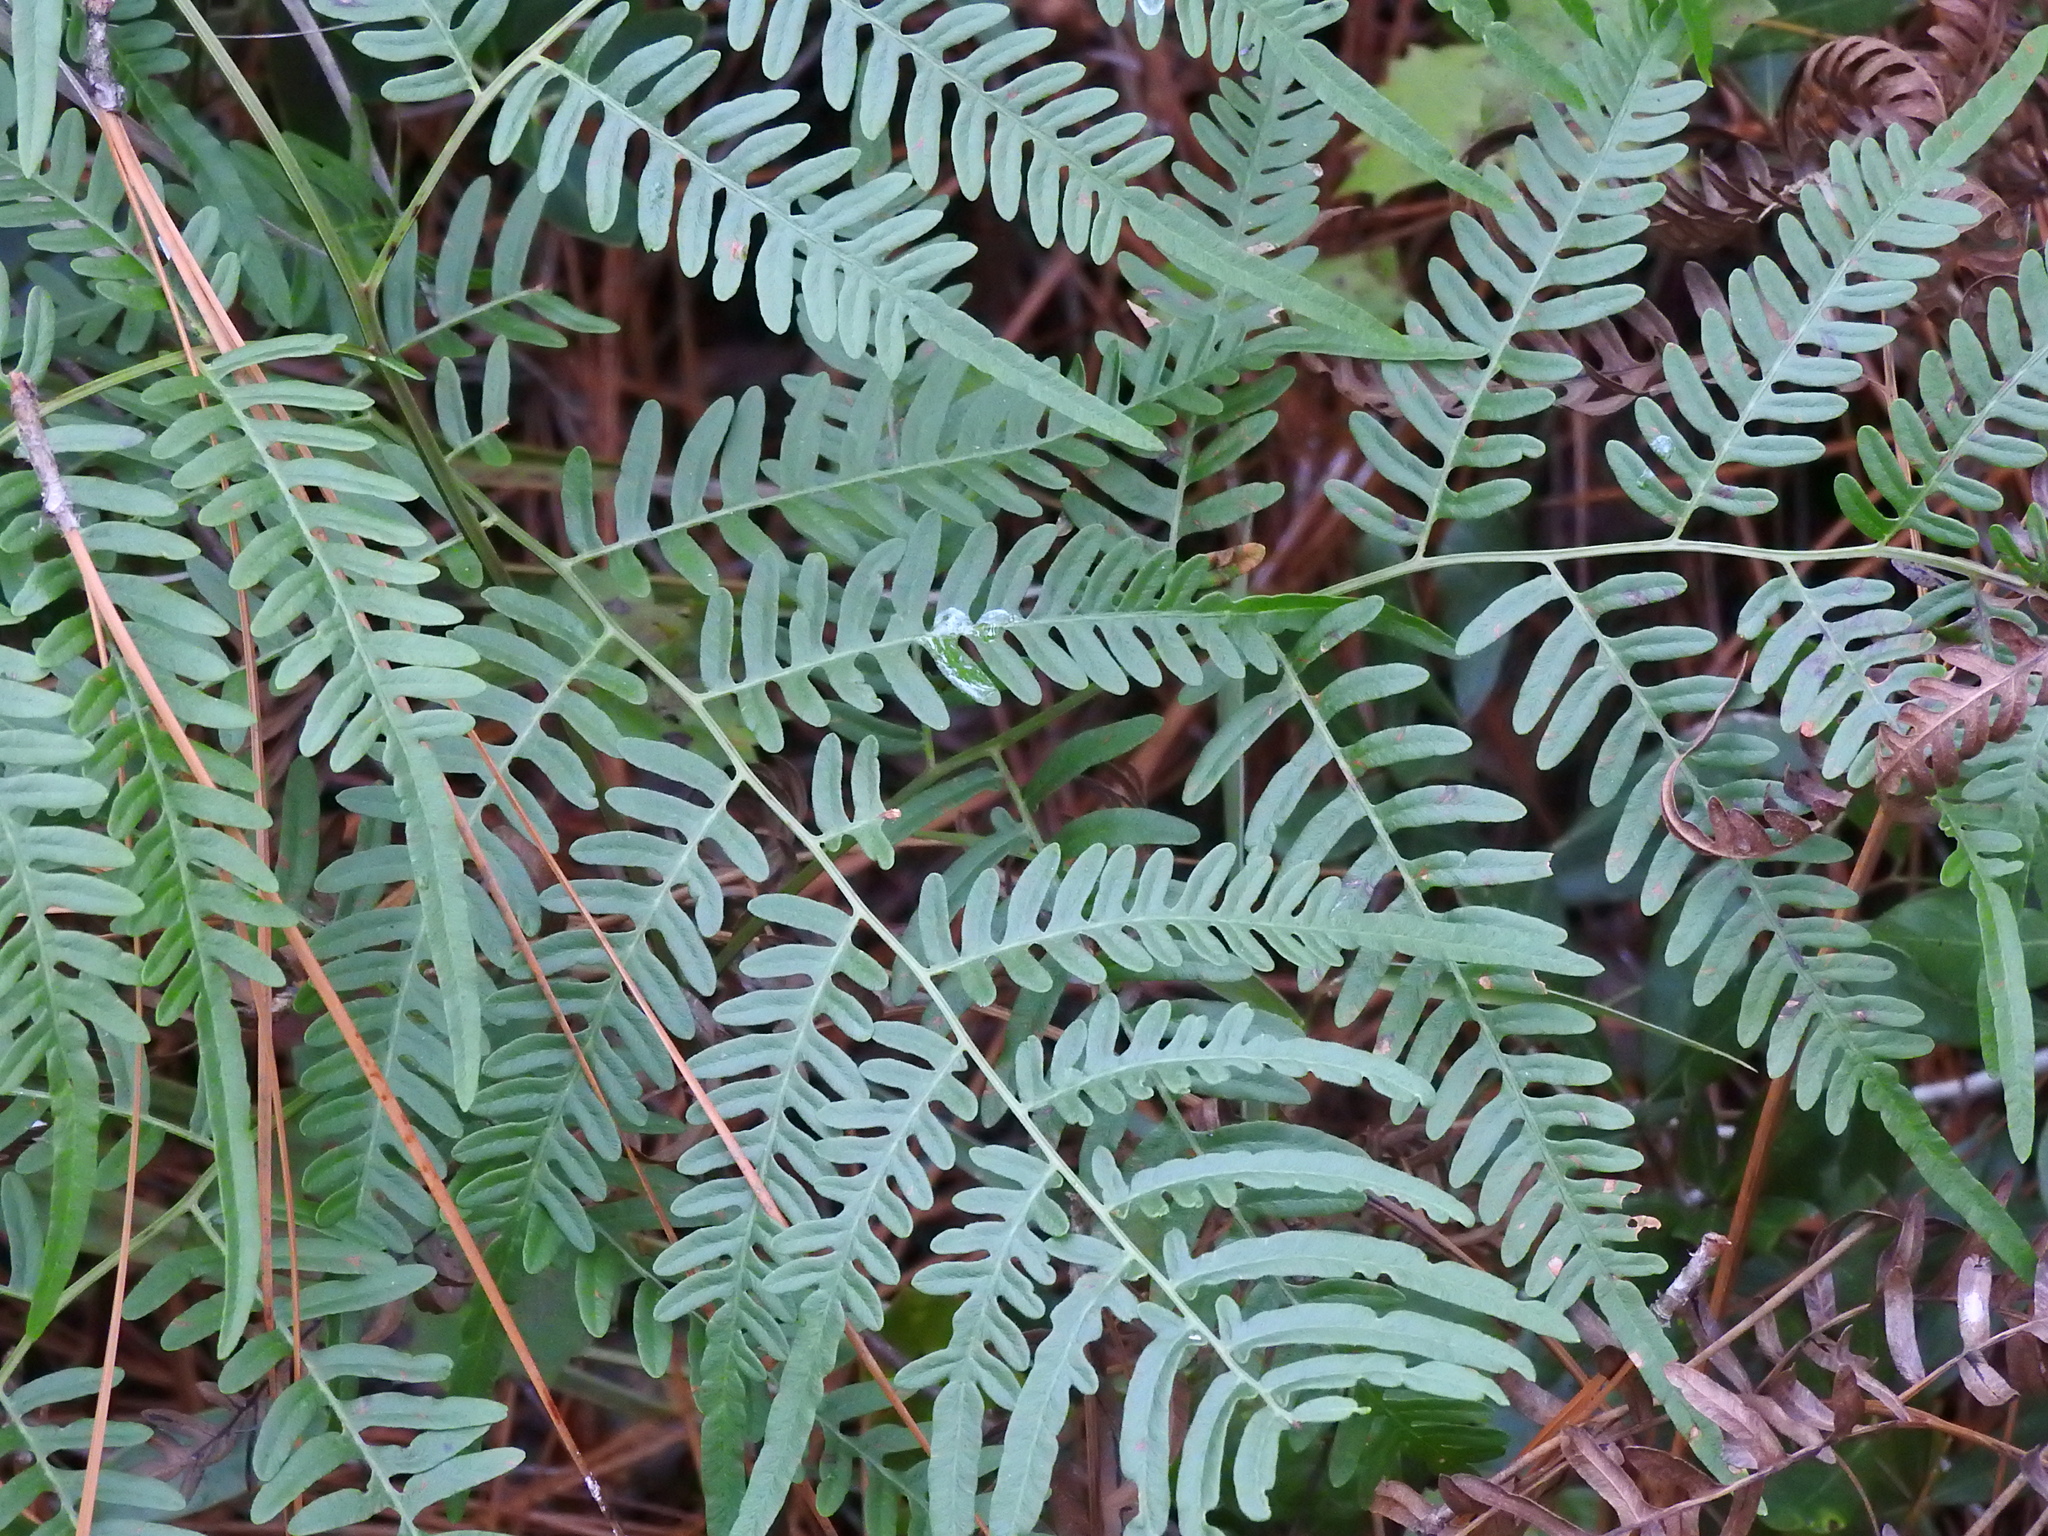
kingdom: Plantae
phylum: Tracheophyta
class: Polypodiopsida
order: Polypodiales
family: Dennstaedtiaceae
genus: Pteridium
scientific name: Pteridium
